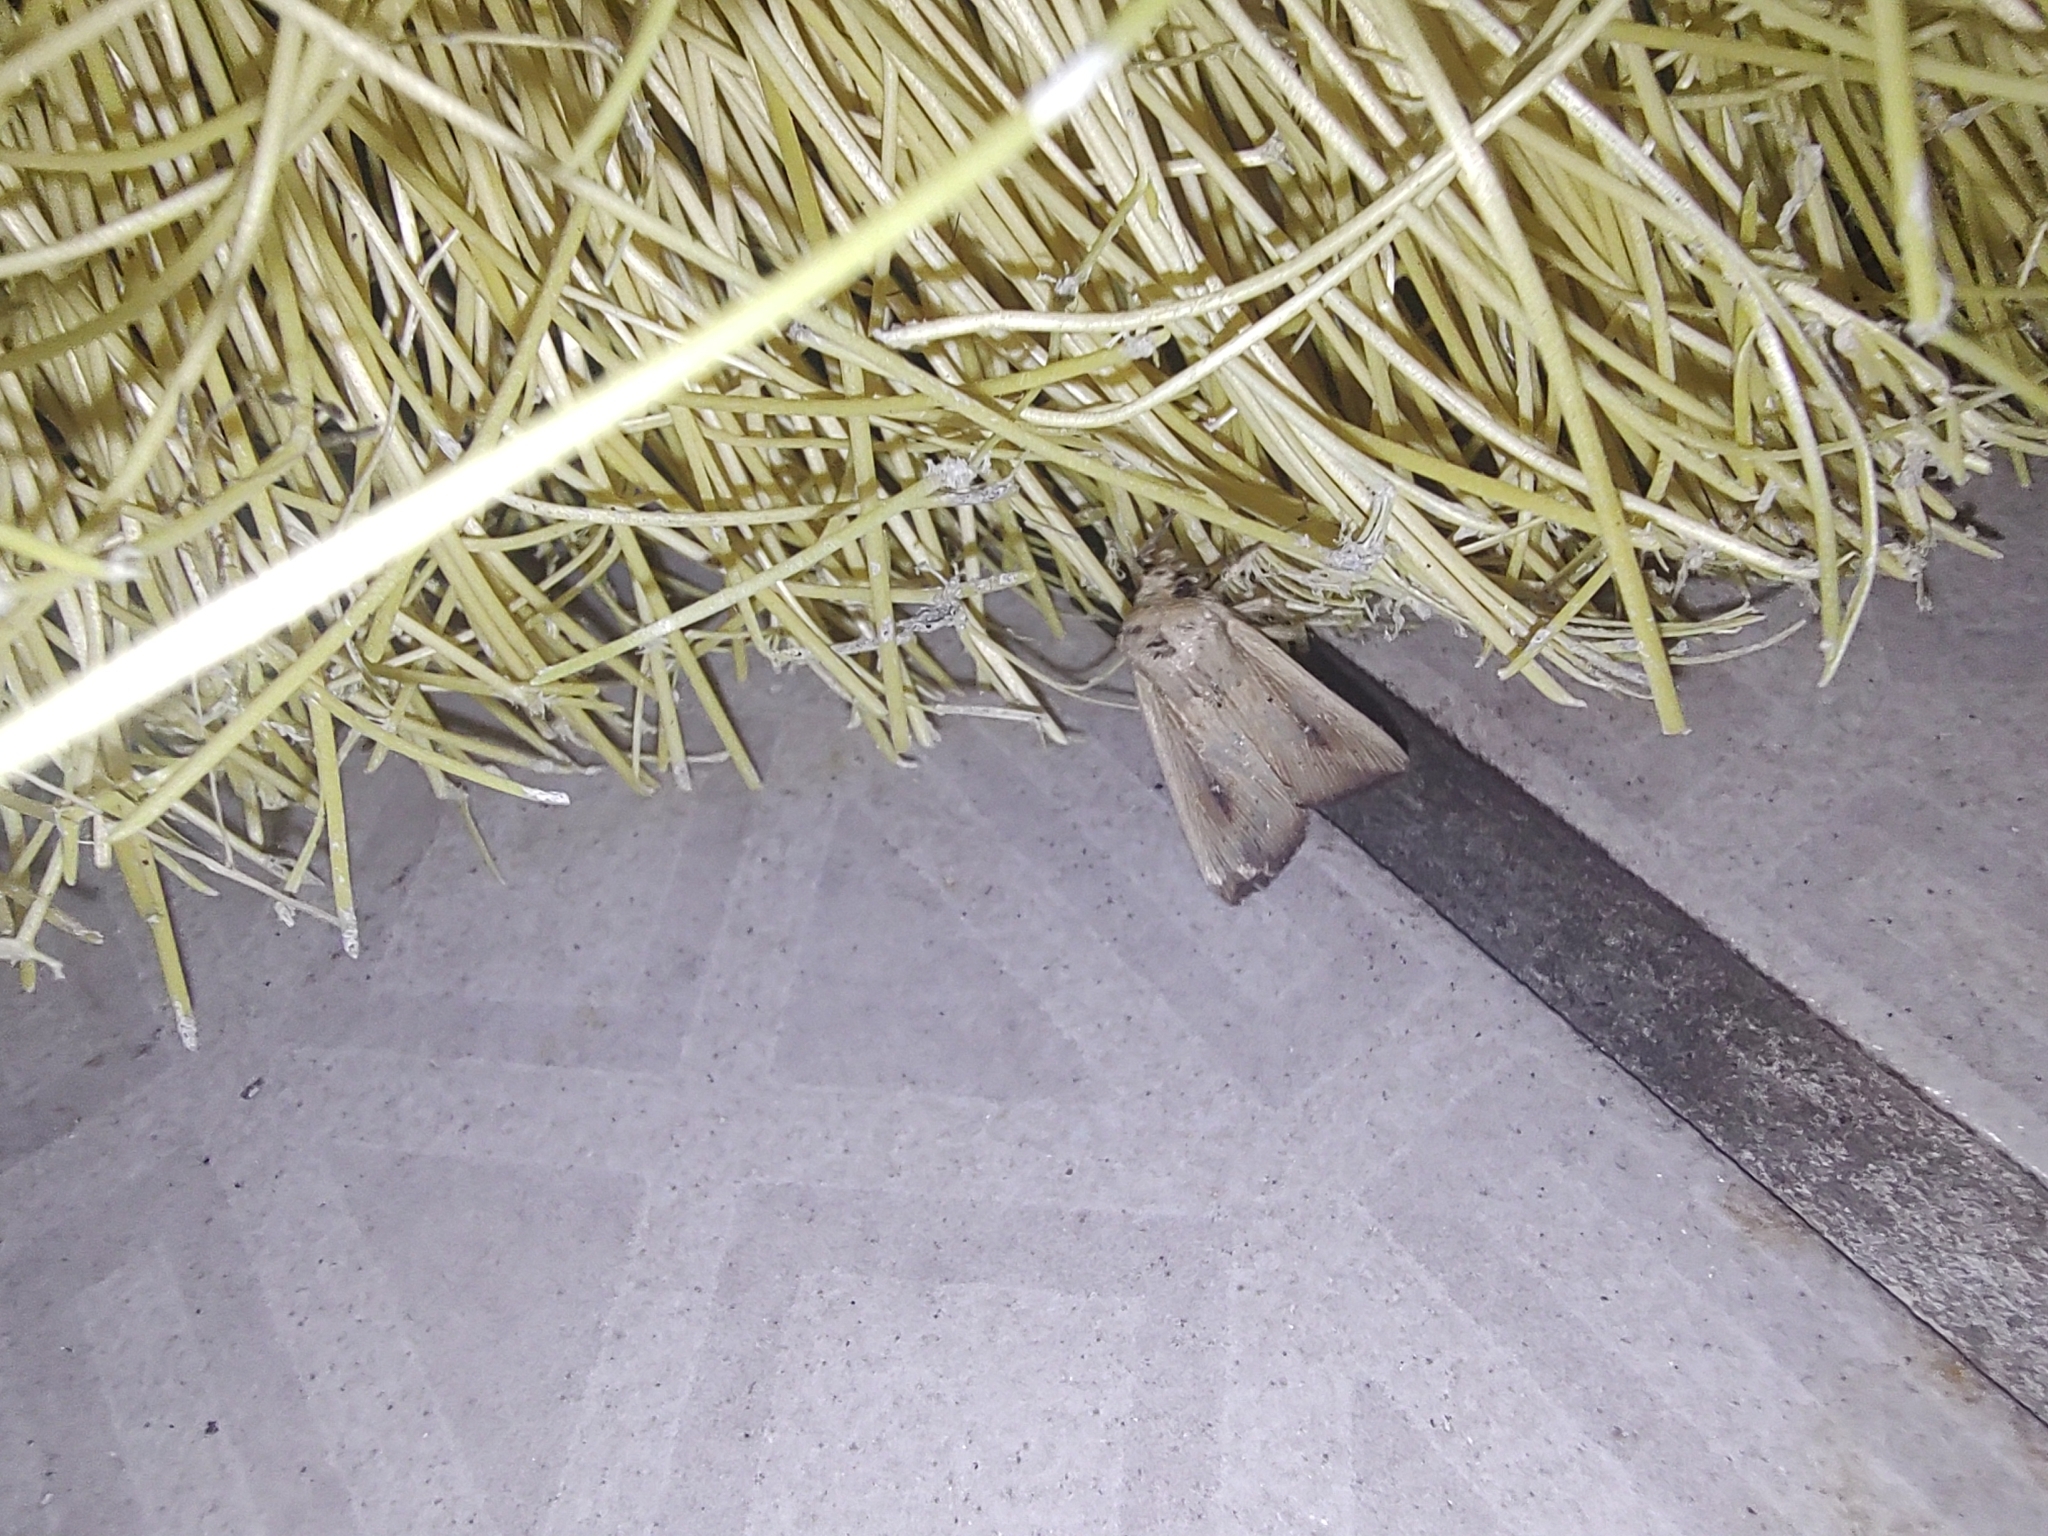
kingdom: Animalia
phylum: Arthropoda
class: Insecta
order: Lepidoptera
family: Noctuidae
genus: Leucania
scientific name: Leucania latiuscula
